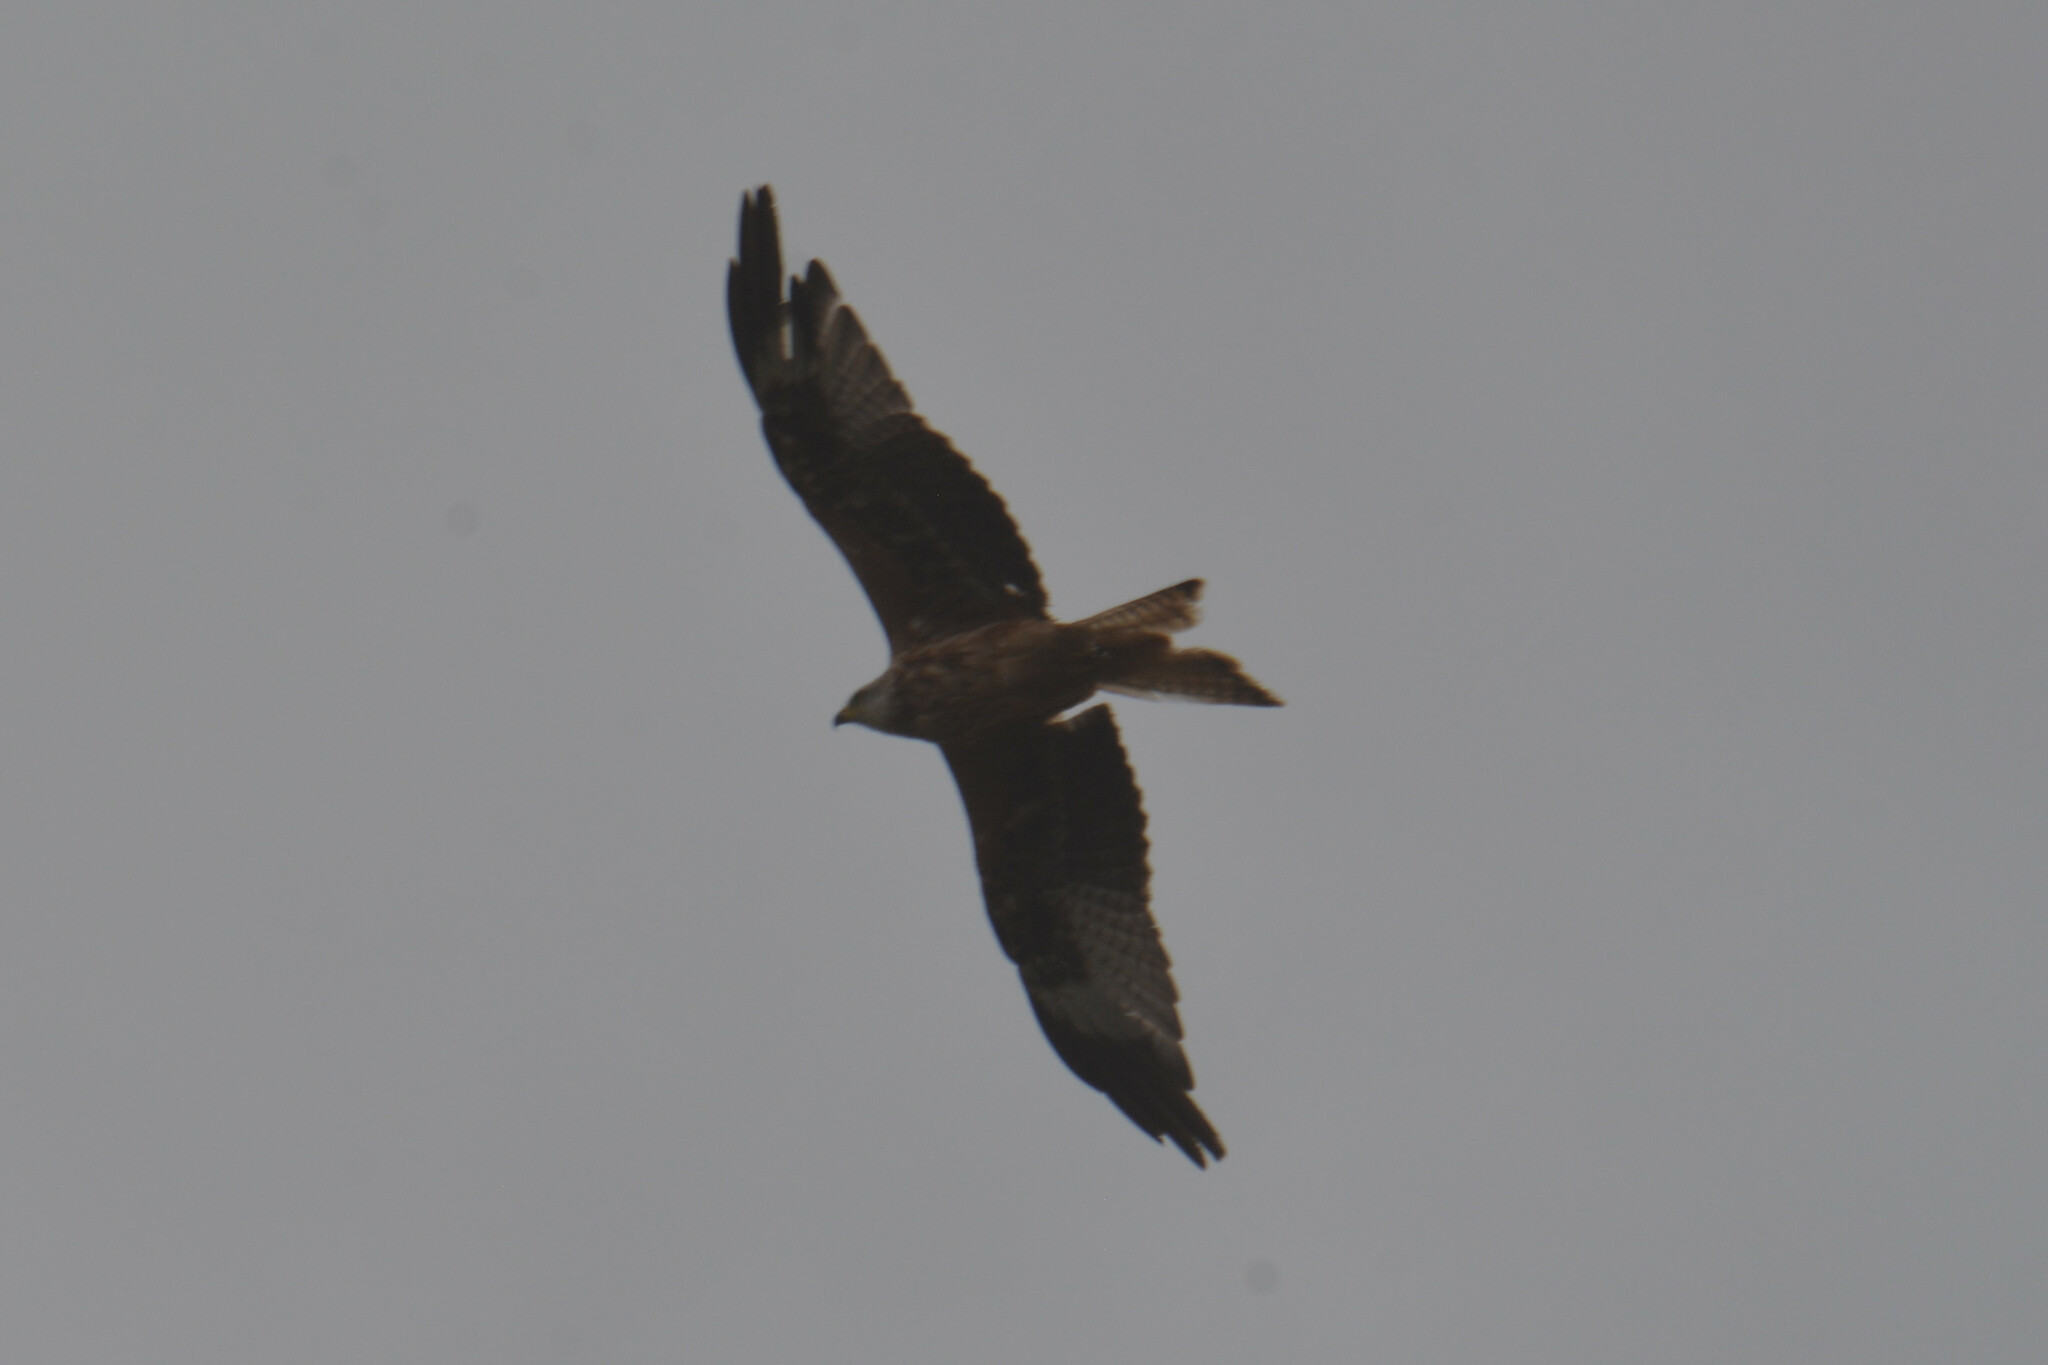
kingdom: Animalia
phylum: Chordata
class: Aves
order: Accipitriformes
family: Accipitridae
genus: Milvus
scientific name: Milvus milvus
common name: Red kite
